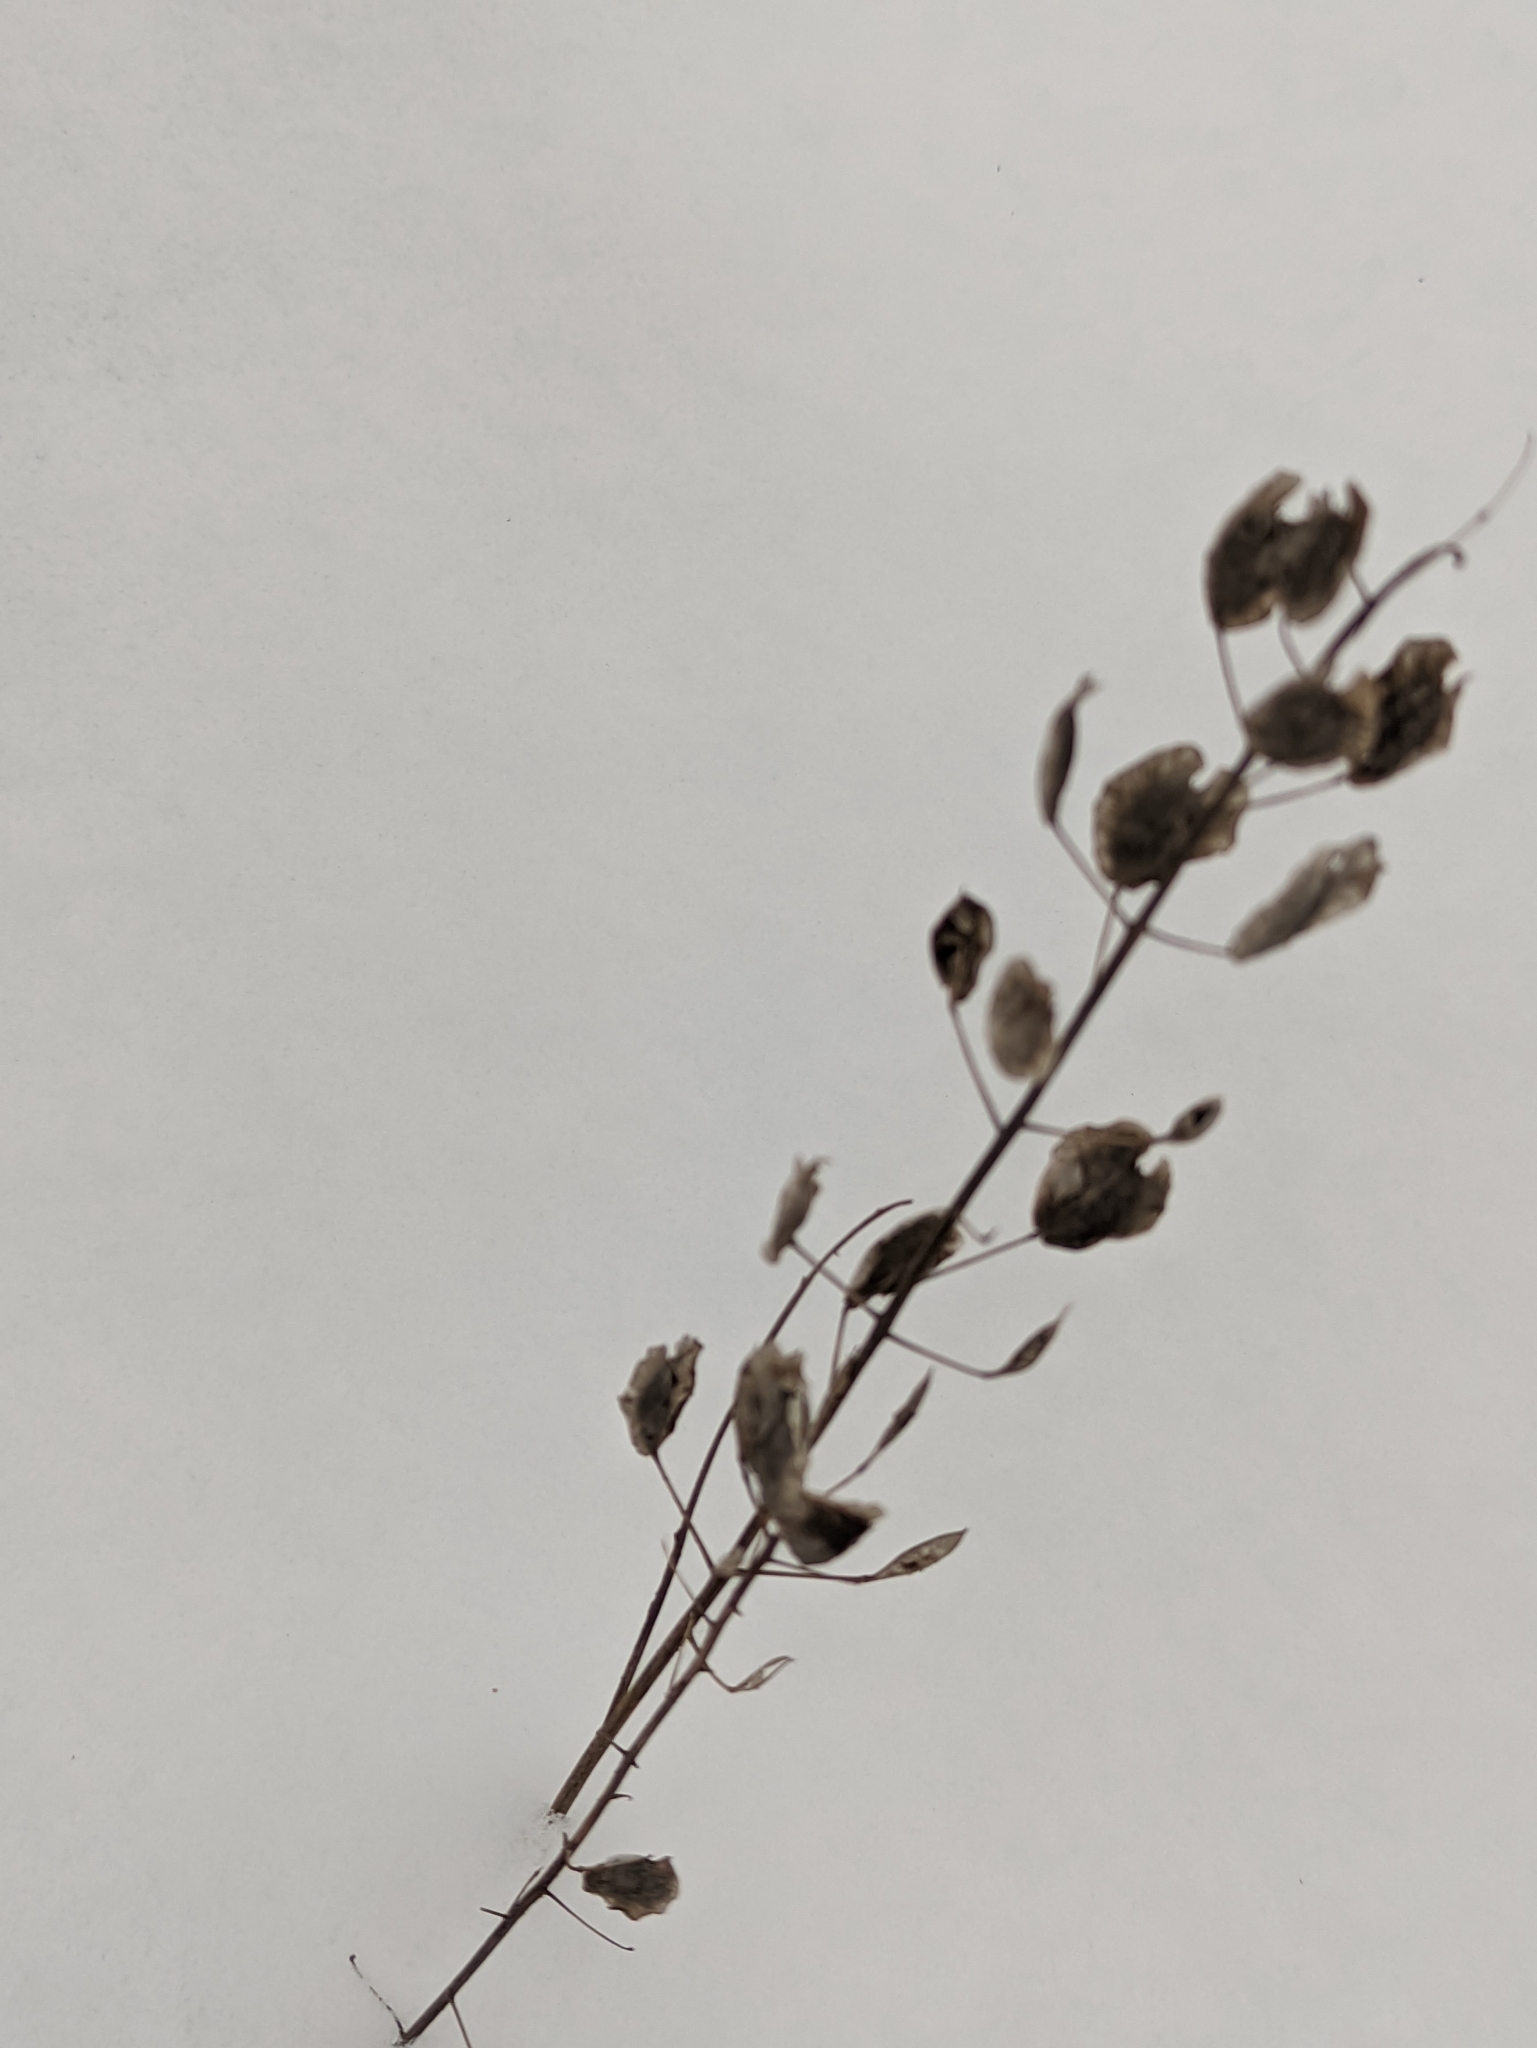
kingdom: Plantae
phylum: Tracheophyta
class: Magnoliopsida
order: Brassicales
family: Brassicaceae
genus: Thlaspi
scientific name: Thlaspi arvense
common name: Field pennycress
